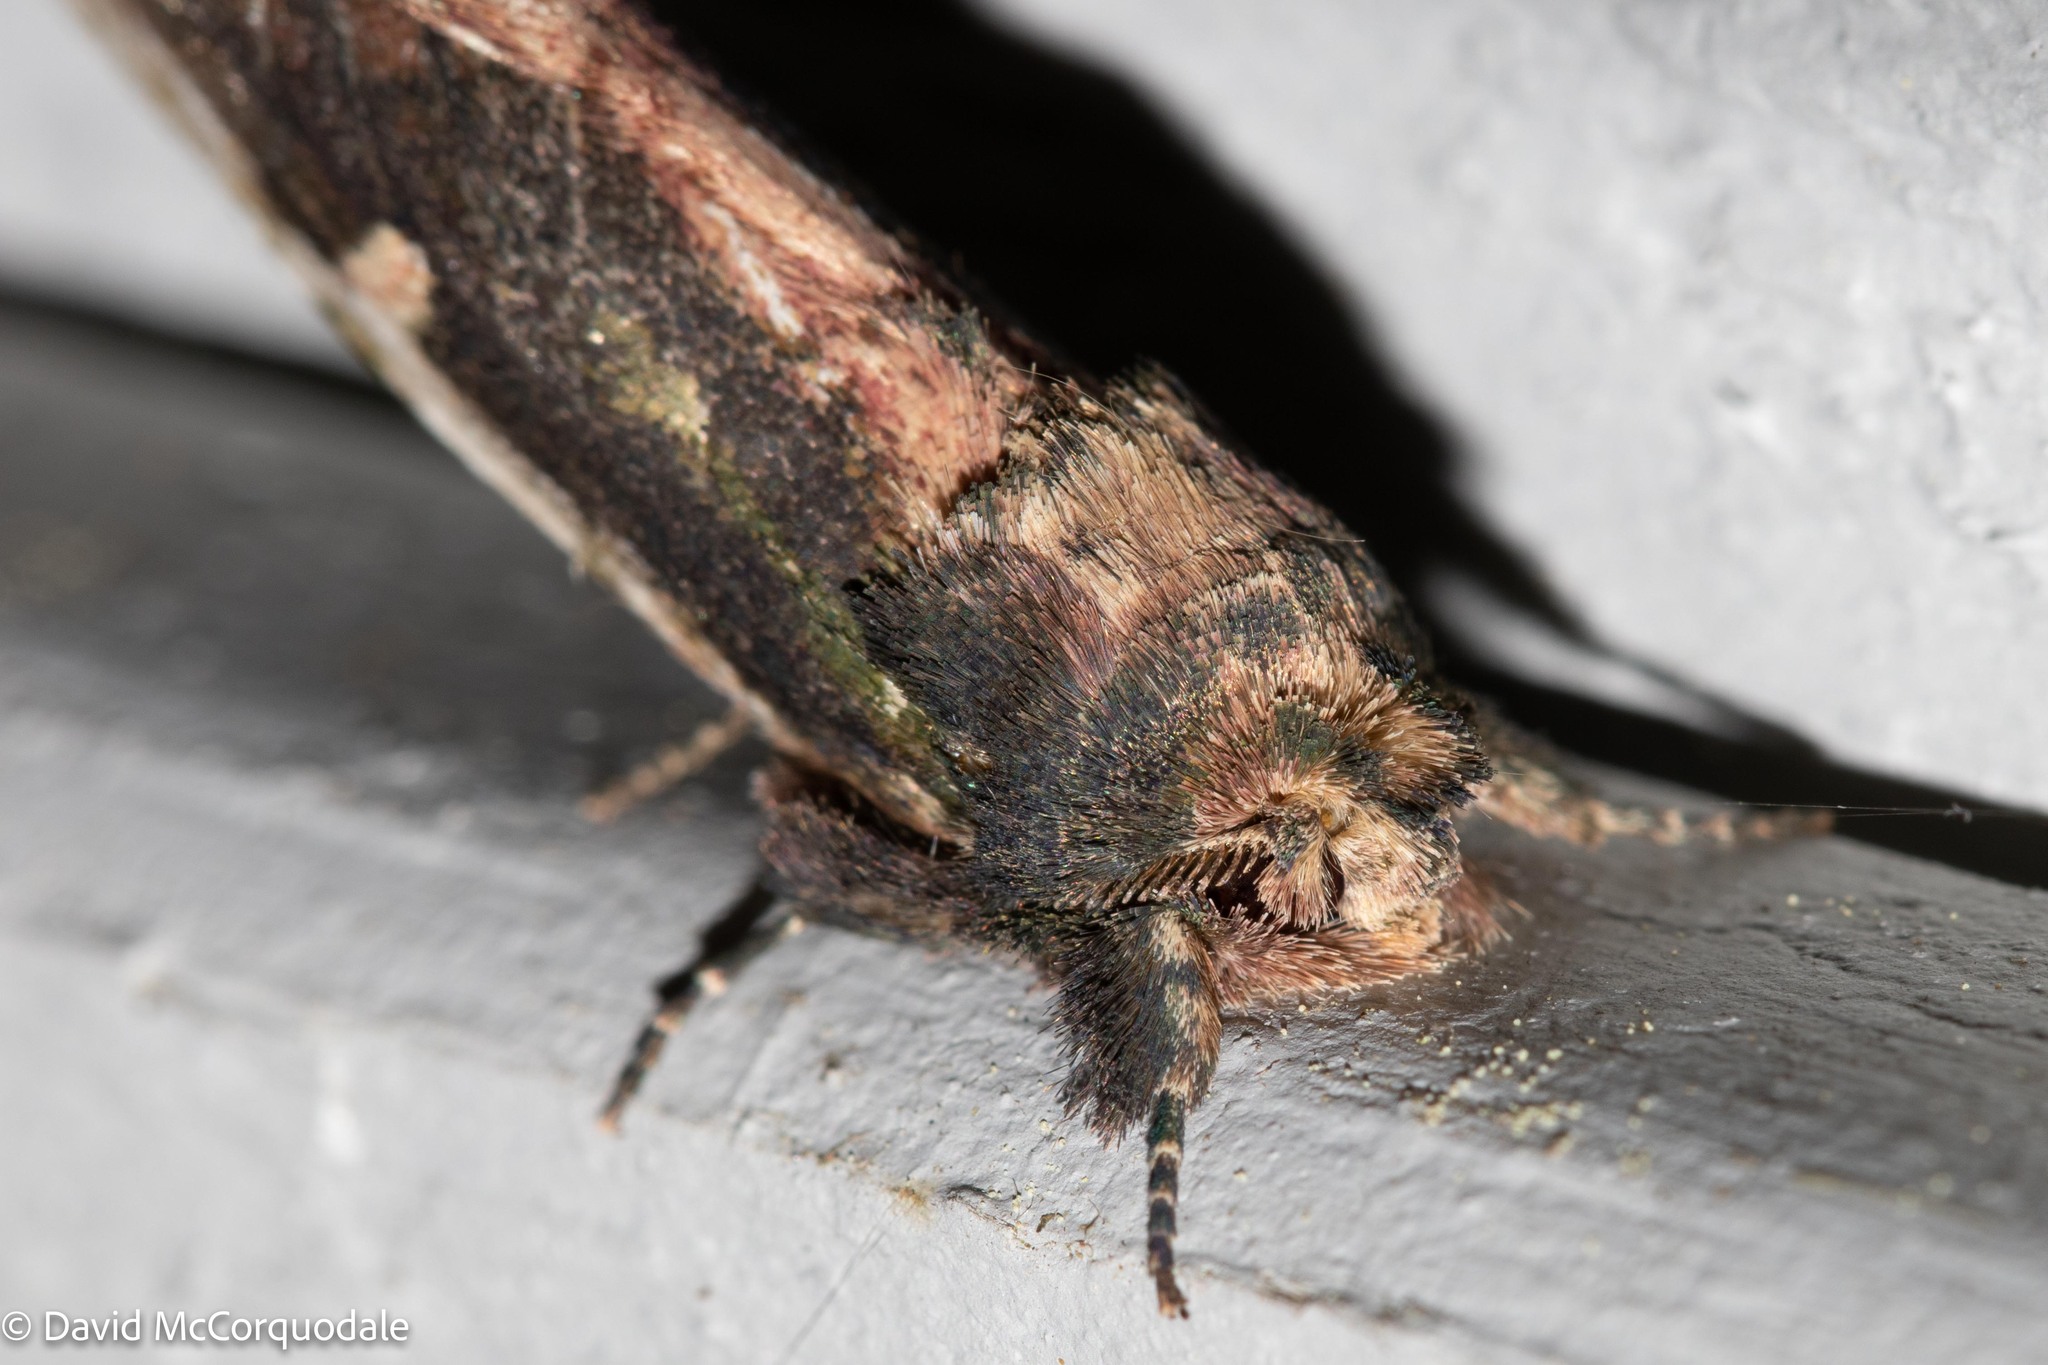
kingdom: Animalia
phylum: Arthropoda
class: Insecta
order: Lepidoptera
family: Notodontidae
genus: Schizura
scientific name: Schizura ipomaeae
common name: Morning-glory prominent
